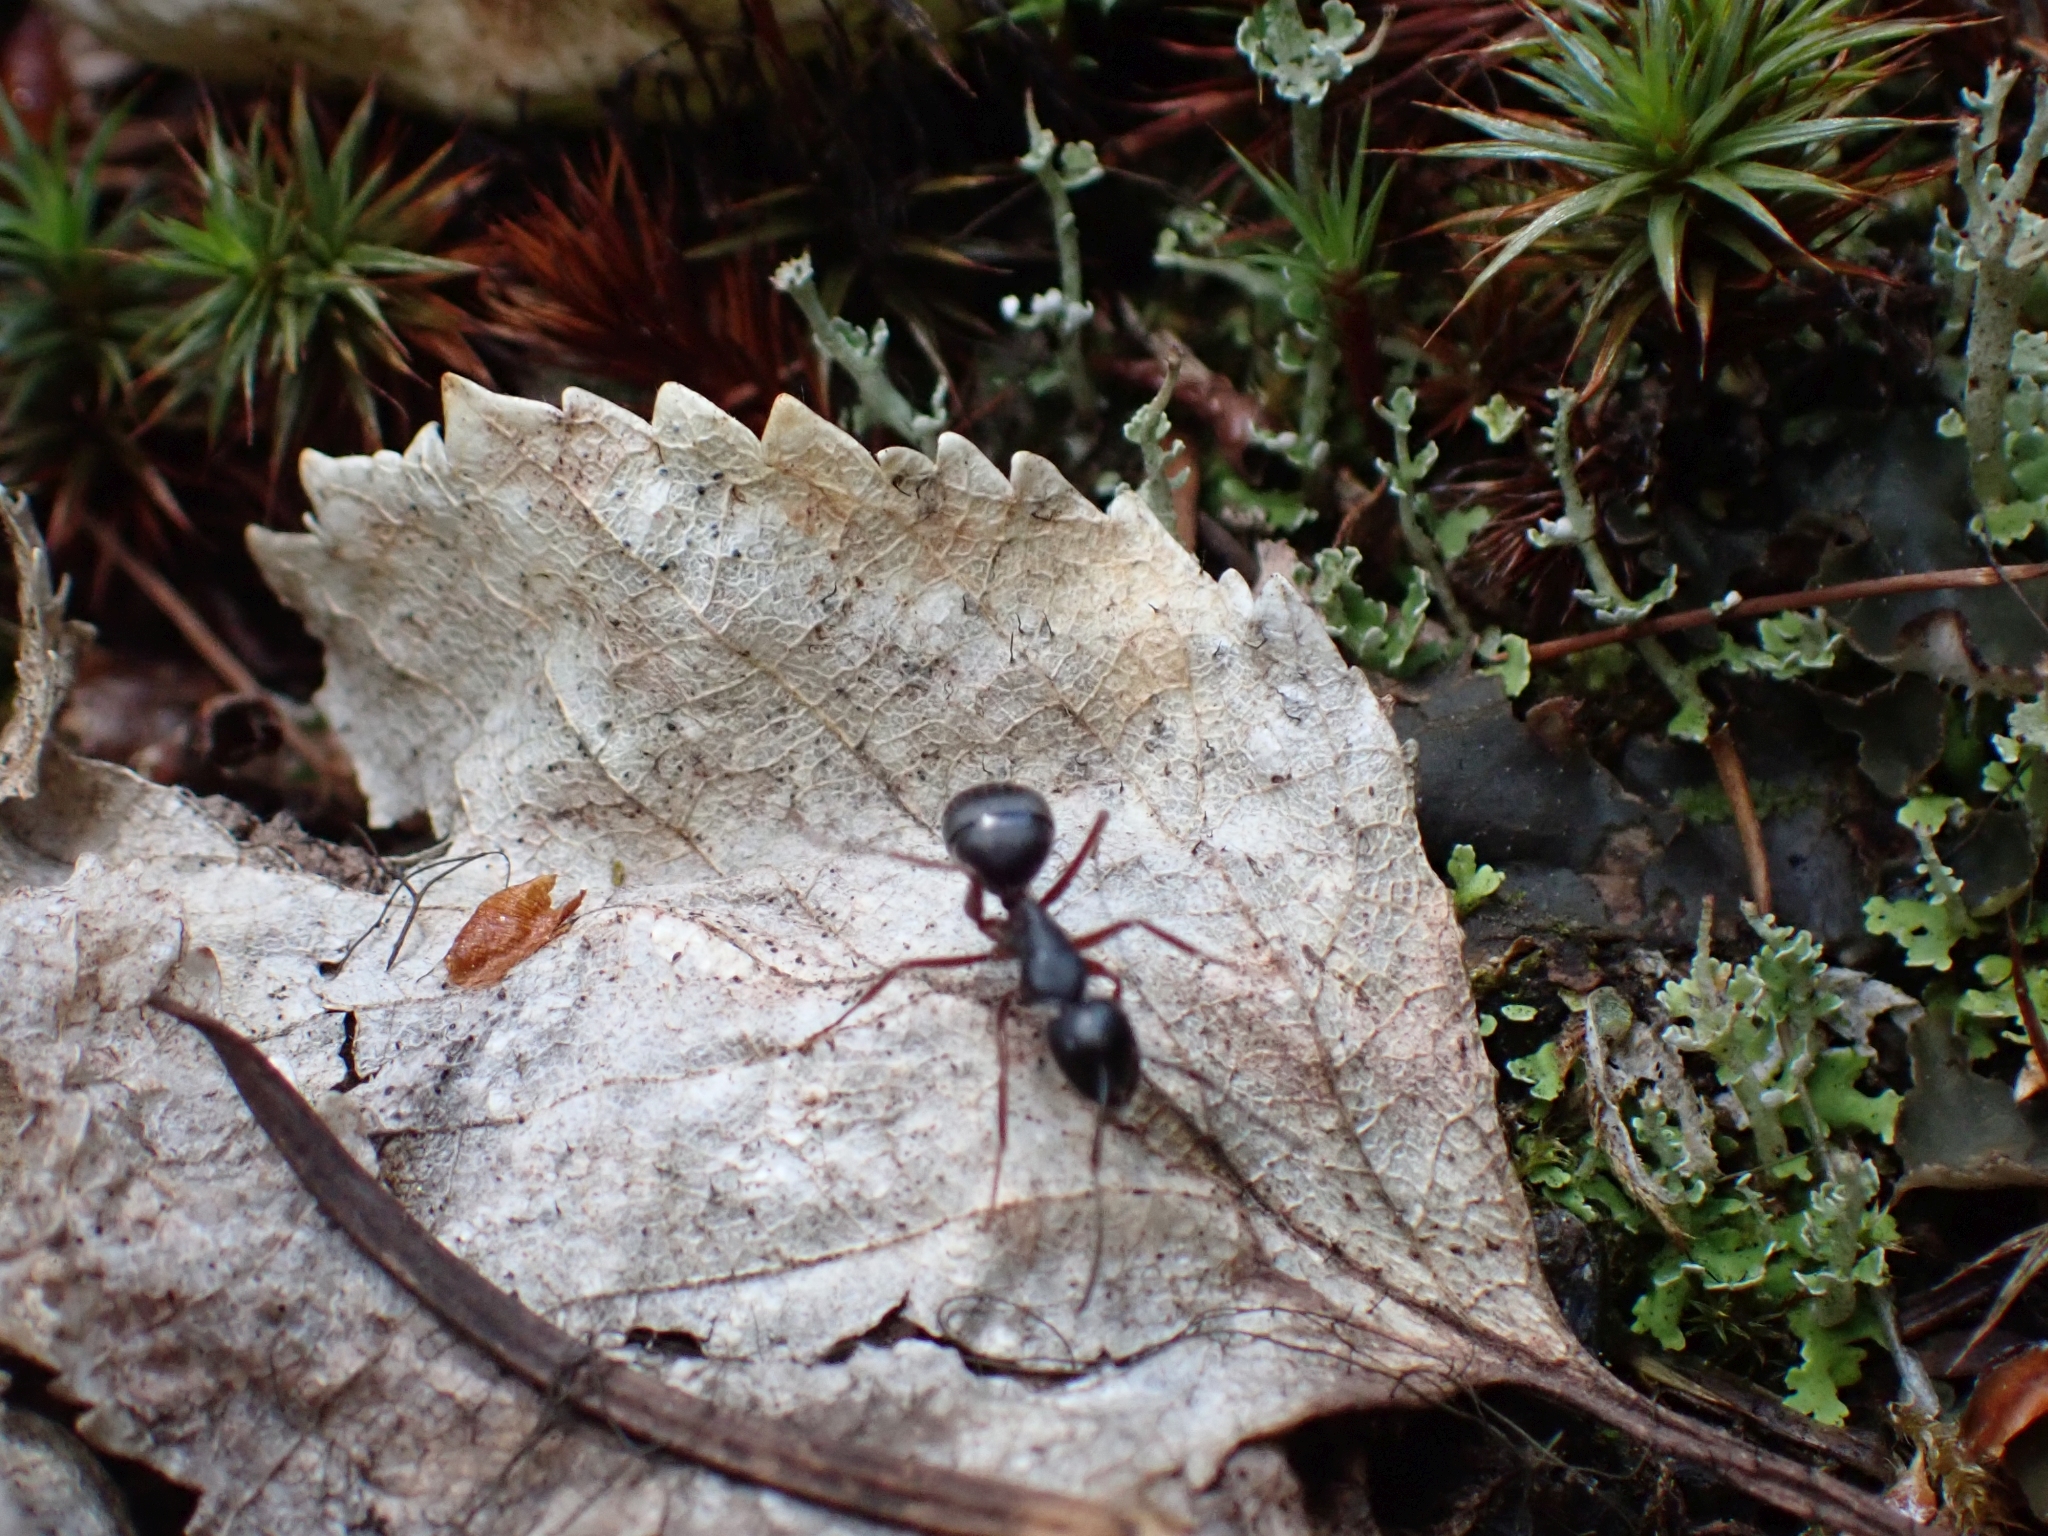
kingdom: Animalia
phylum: Arthropoda
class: Insecta
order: Hymenoptera
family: Formicidae
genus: Camponotus
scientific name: Camponotus modoc
